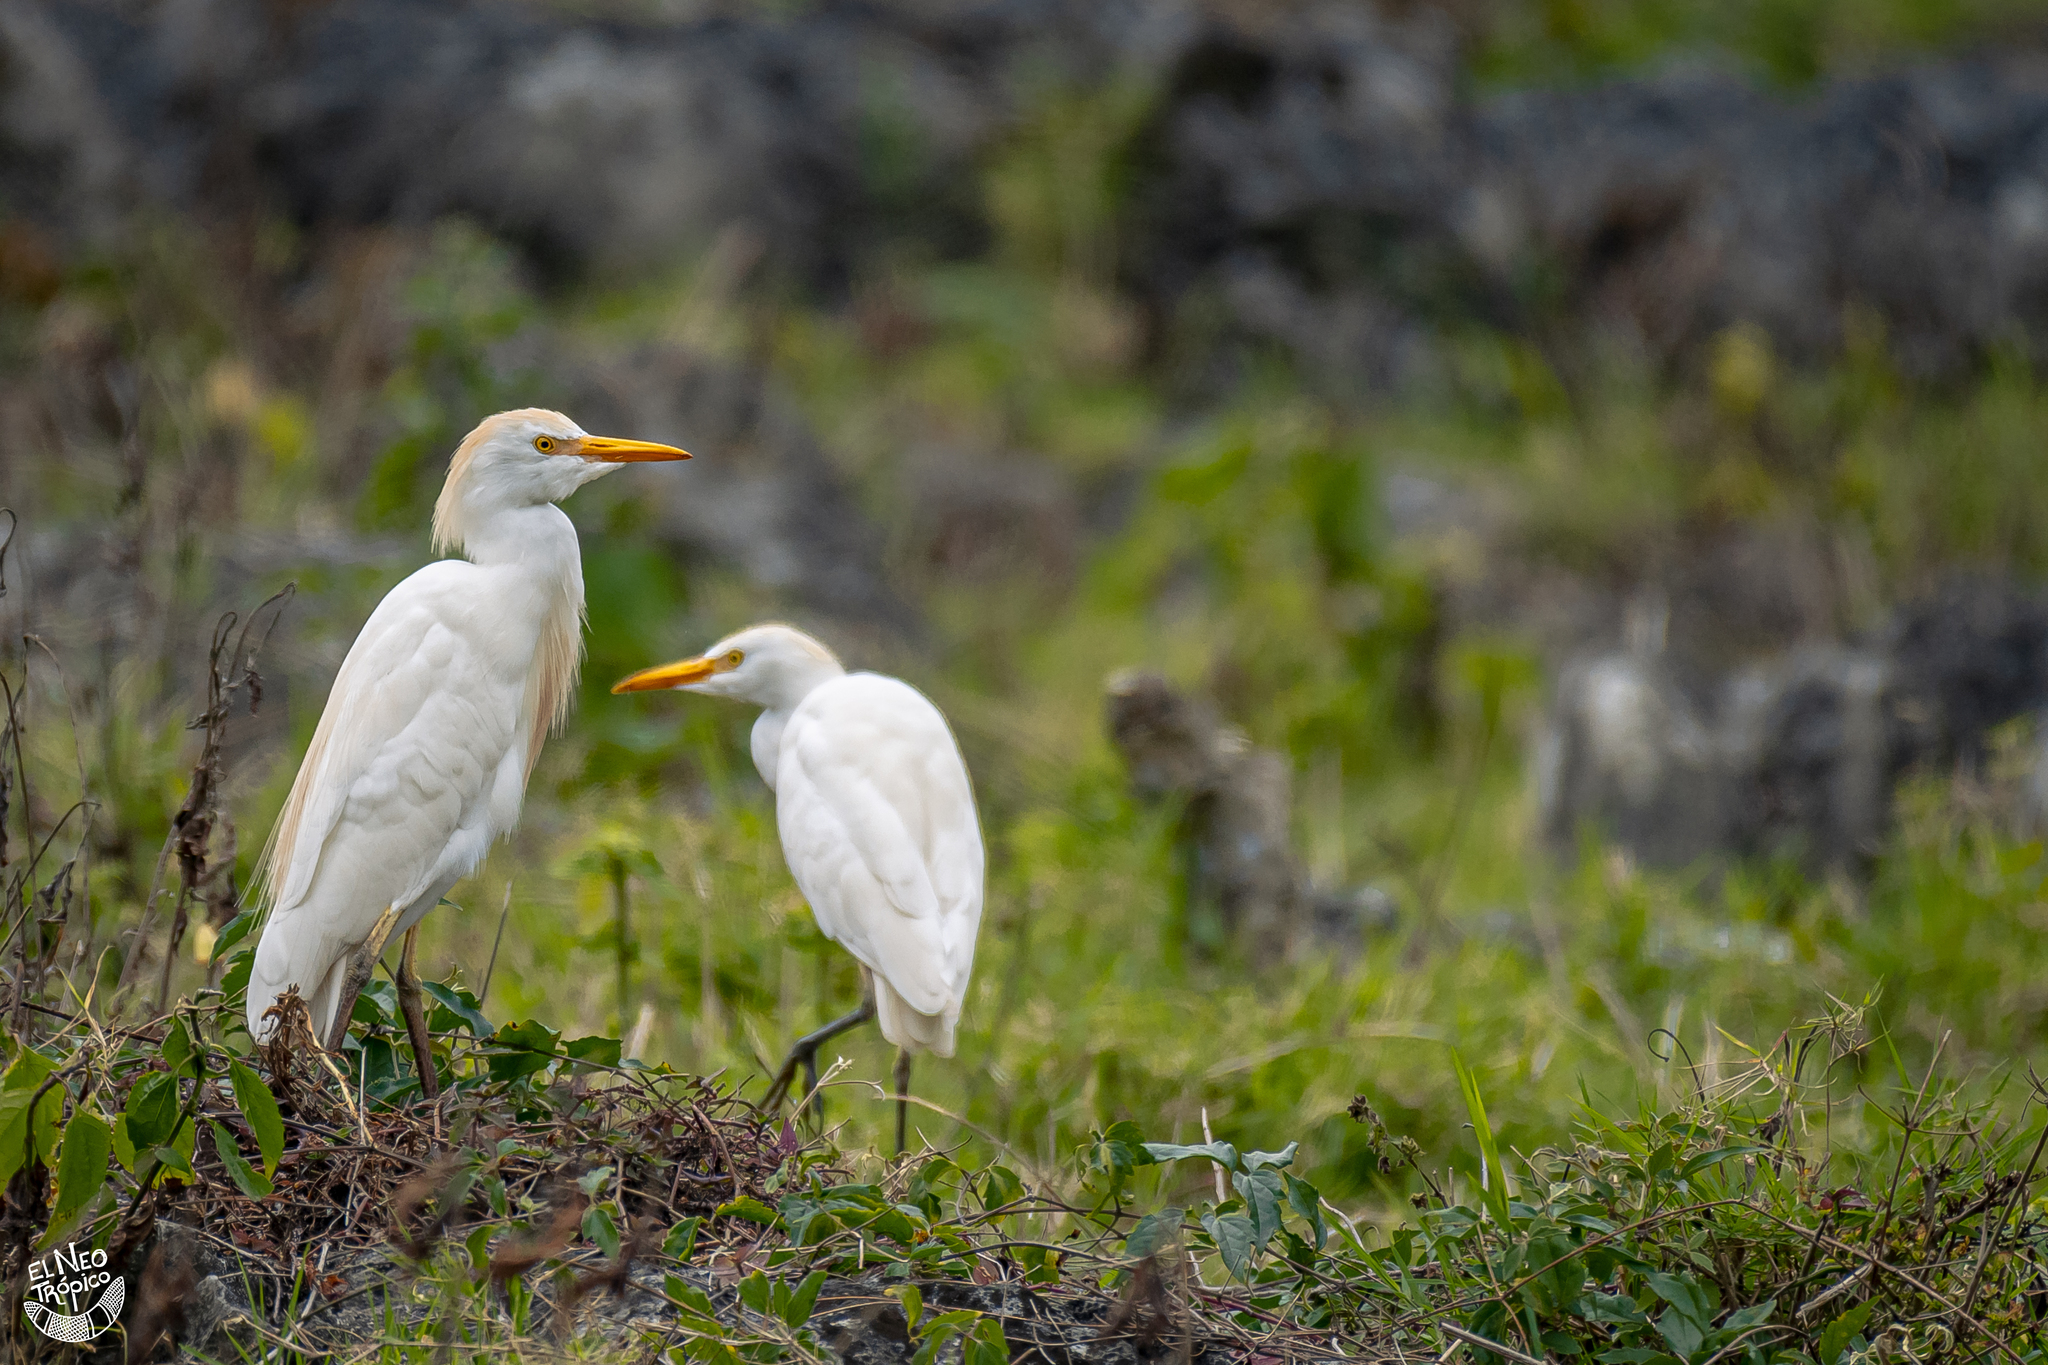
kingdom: Animalia
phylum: Chordata
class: Aves
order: Pelecaniformes
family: Ardeidae
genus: Bubulcus
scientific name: Bubulcus ibis
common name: Cattle egret
